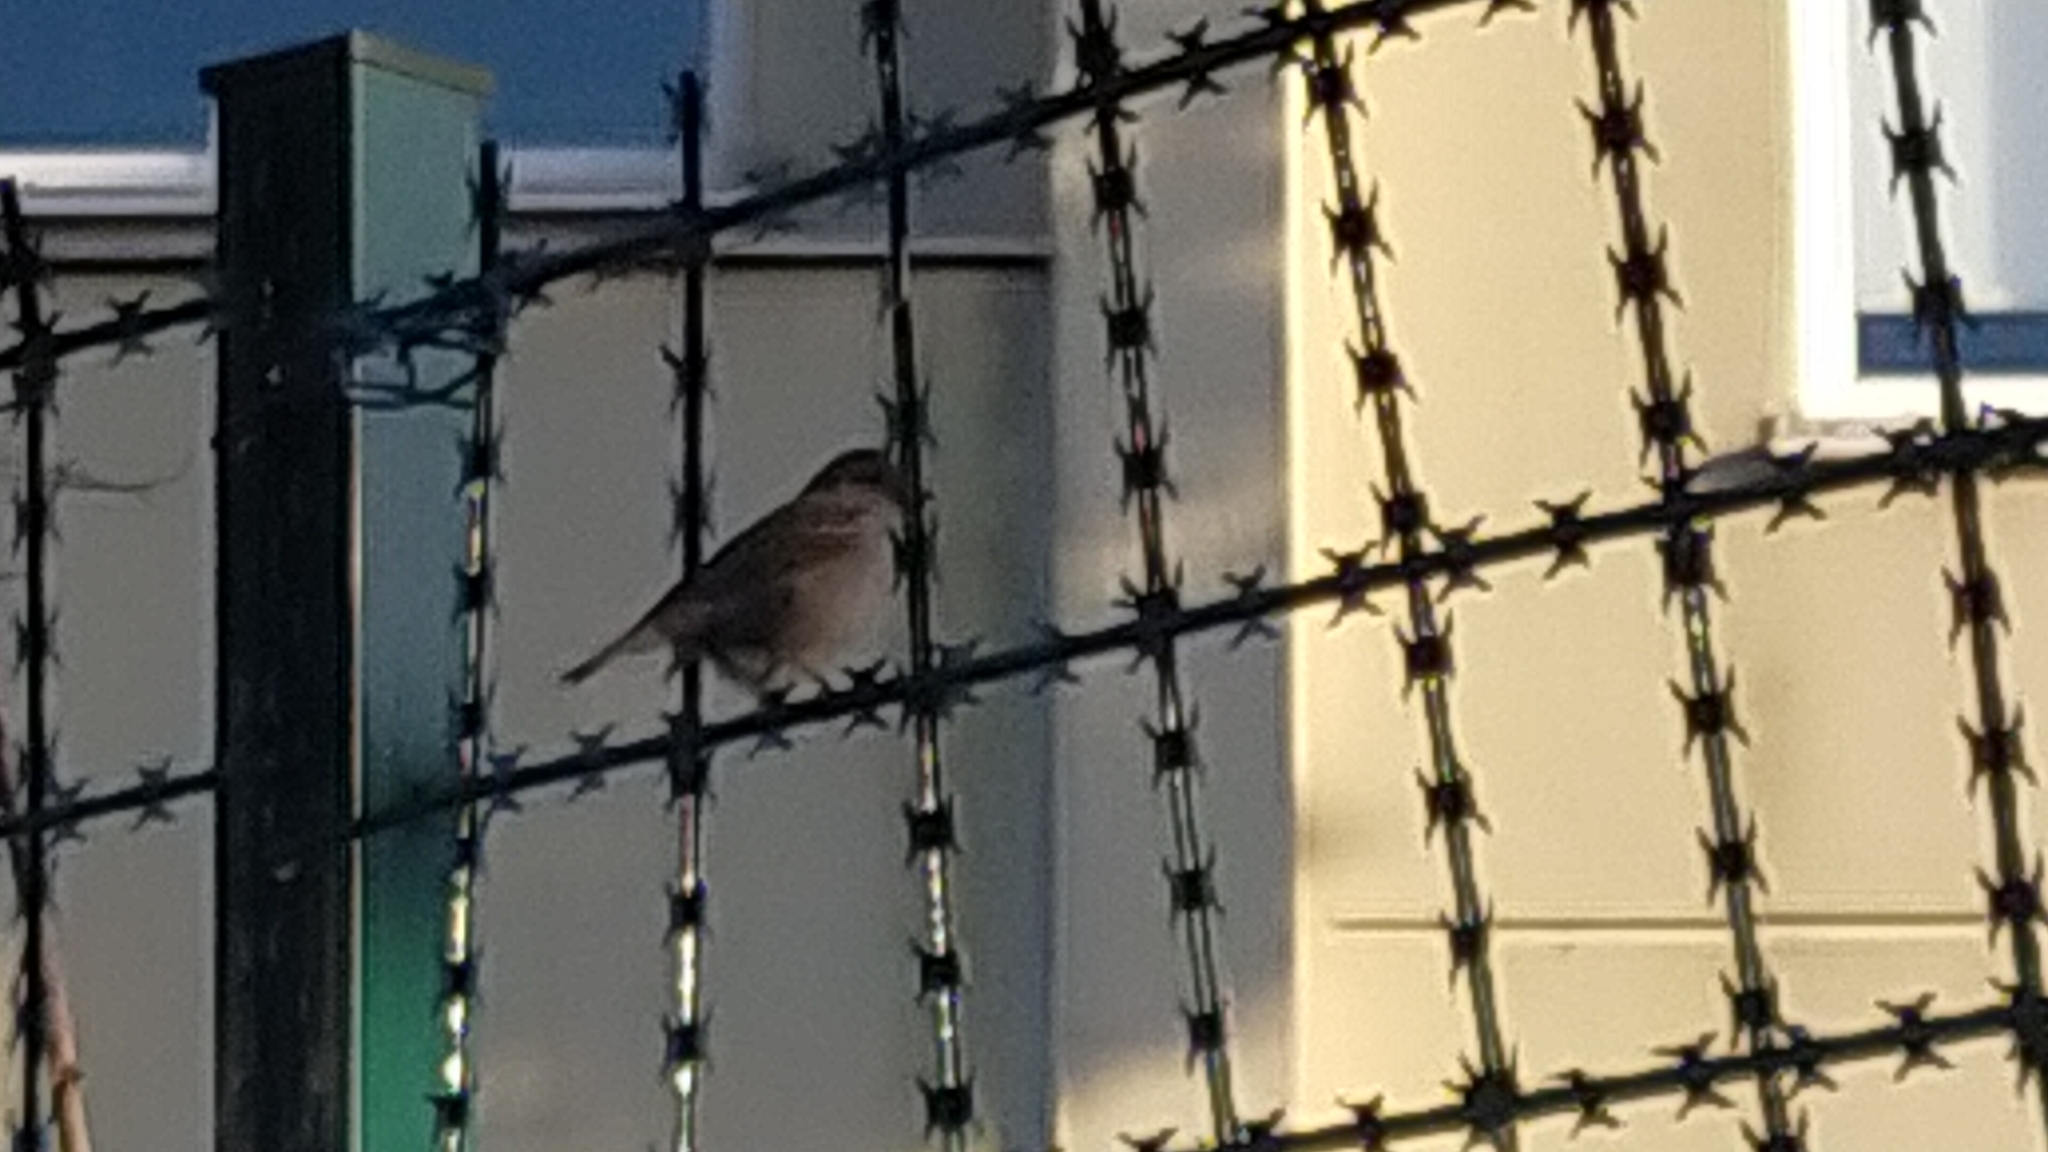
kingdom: Animalia
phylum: Chordata
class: Aves
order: Passeriformes
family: Passeridae
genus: Passer
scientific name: Passer domesticus
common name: House sparrow
